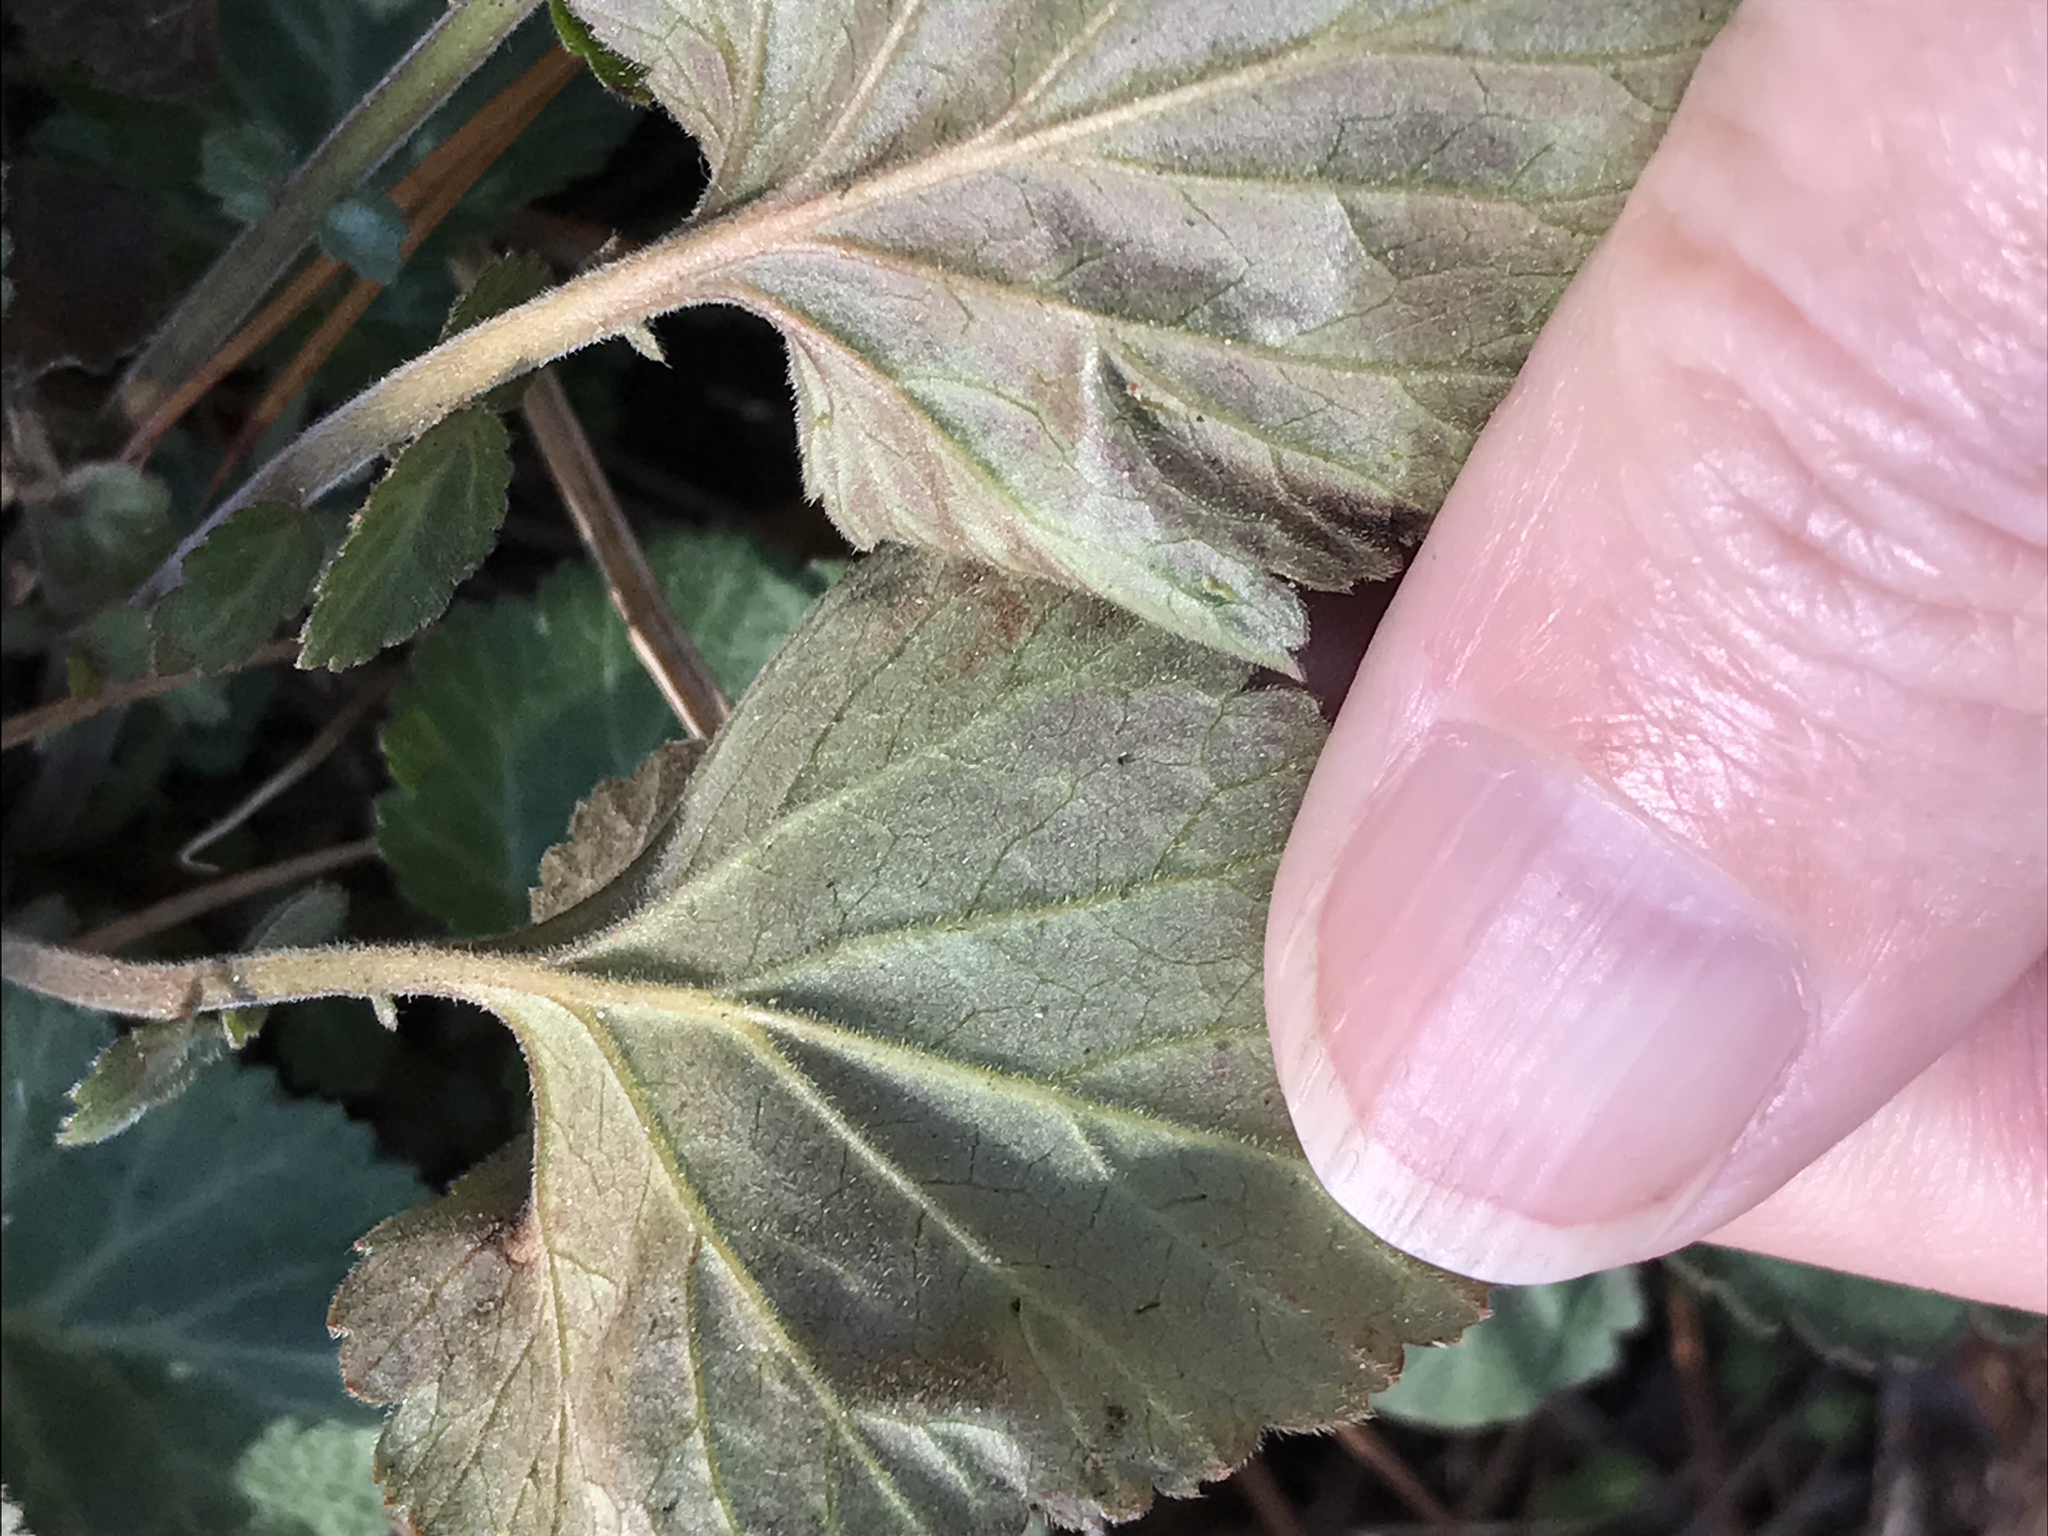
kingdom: Plantae
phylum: Tracheophyta
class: Magnoliopsida
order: Rosales
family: Rosaceae
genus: Geum
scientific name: Geum canadense
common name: White avens
